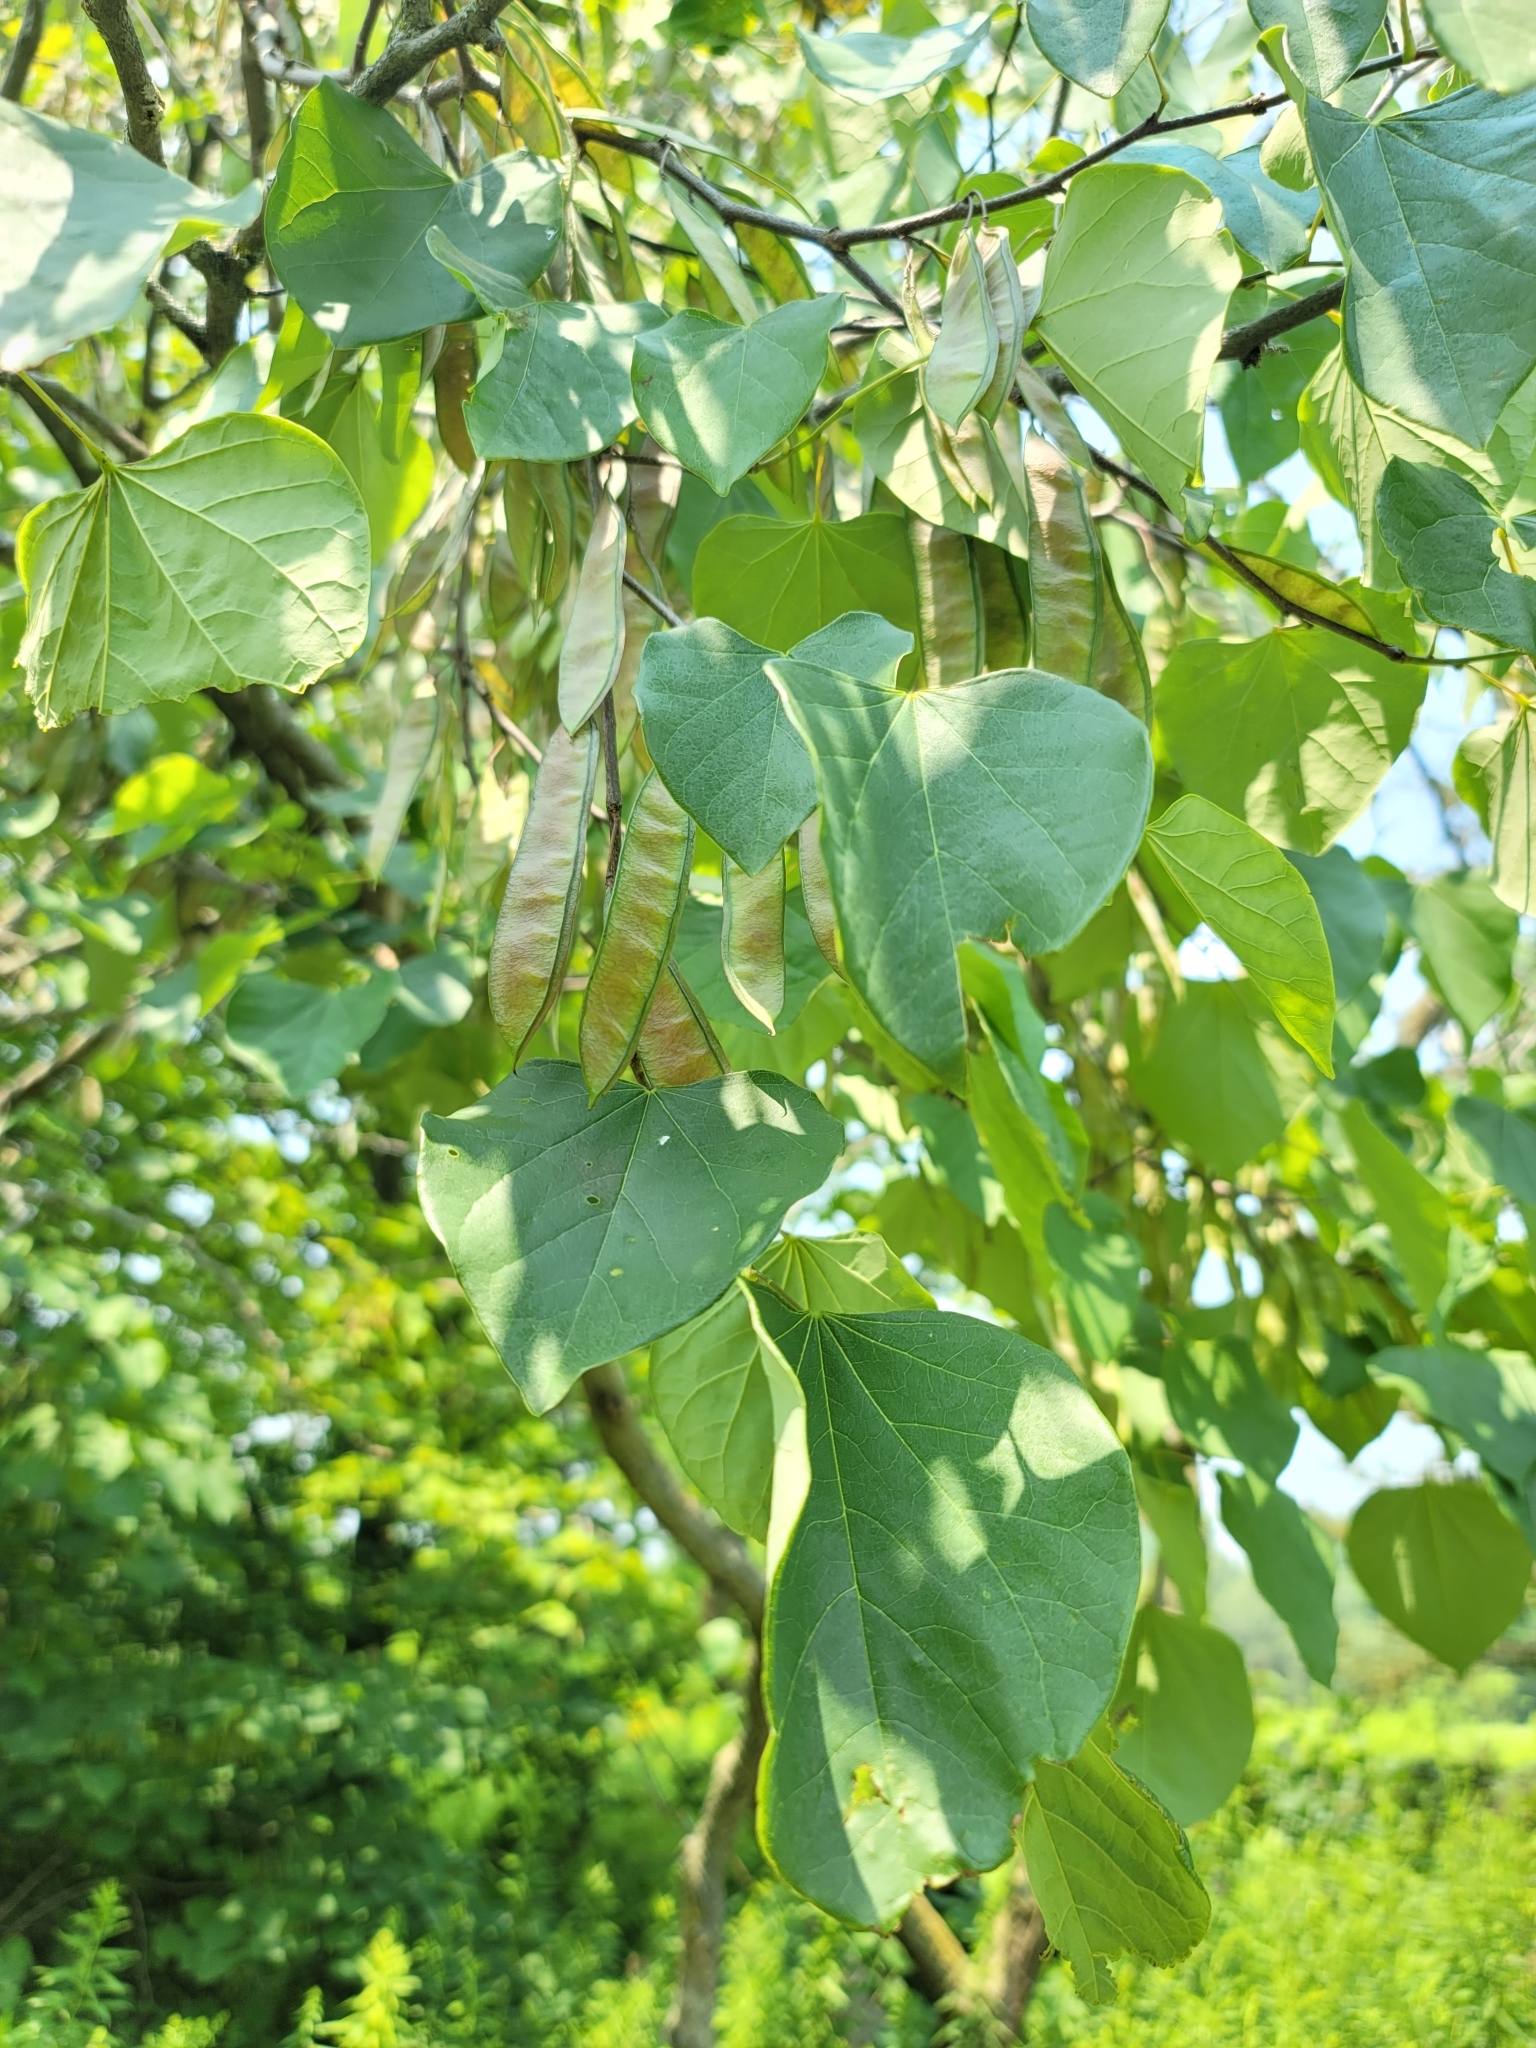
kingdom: Plantae
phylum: Tracheophyta
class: Magnoliopsida
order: Fabales
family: Fabaceae
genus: Cercis
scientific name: Cercis canadensis
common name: Eastern redbud
